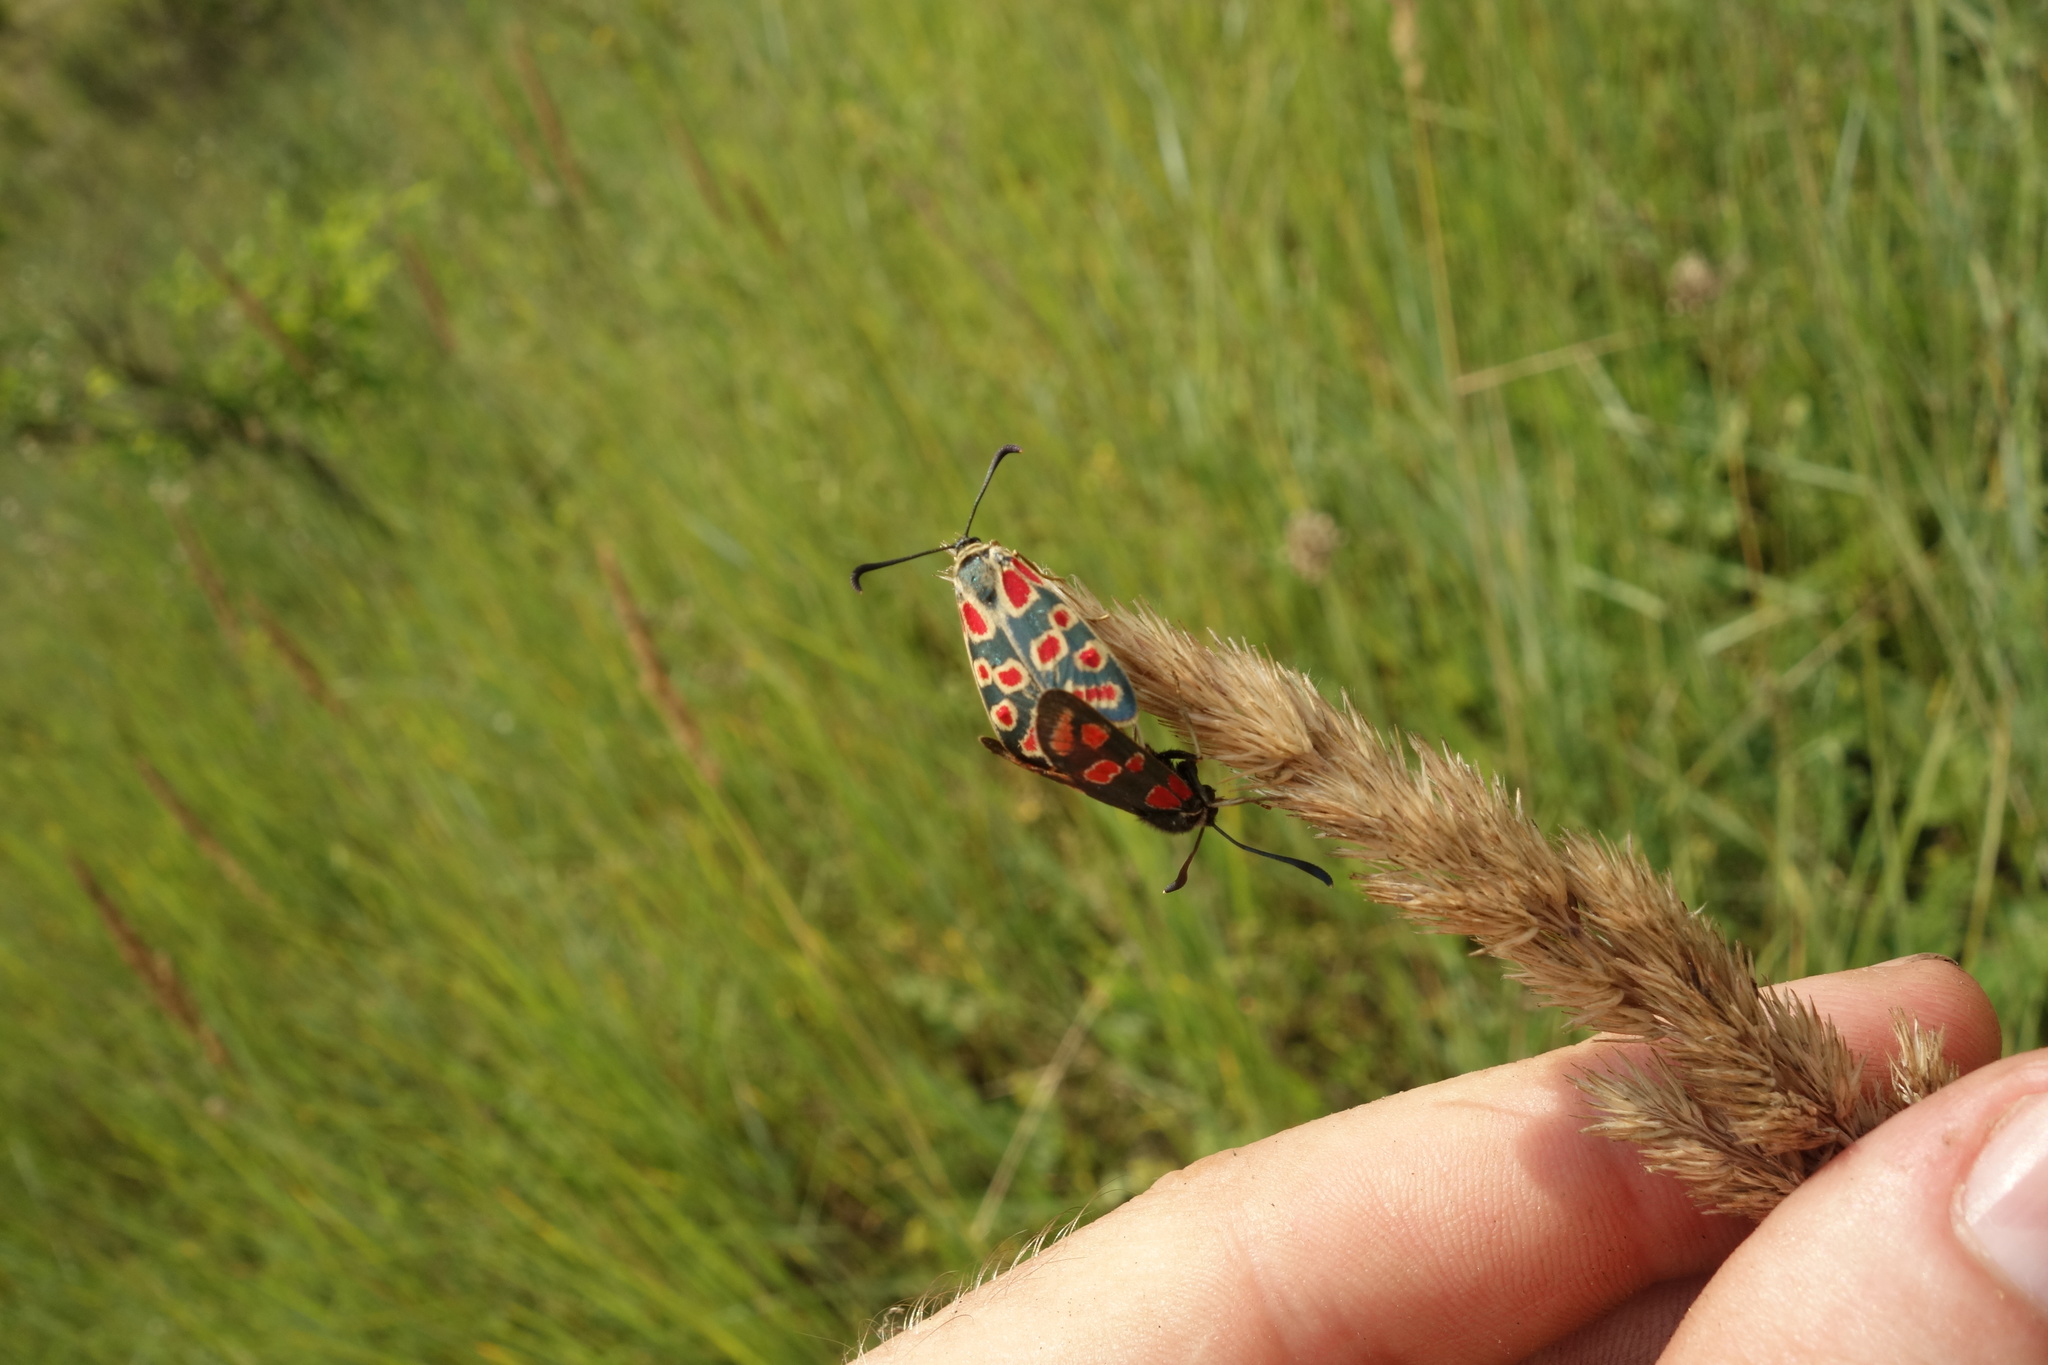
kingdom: Animalia
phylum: Arthropoda
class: Insecta
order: Lepidoptera
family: Zygaenidae
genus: Zygaena
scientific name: Zygaena carniolica
